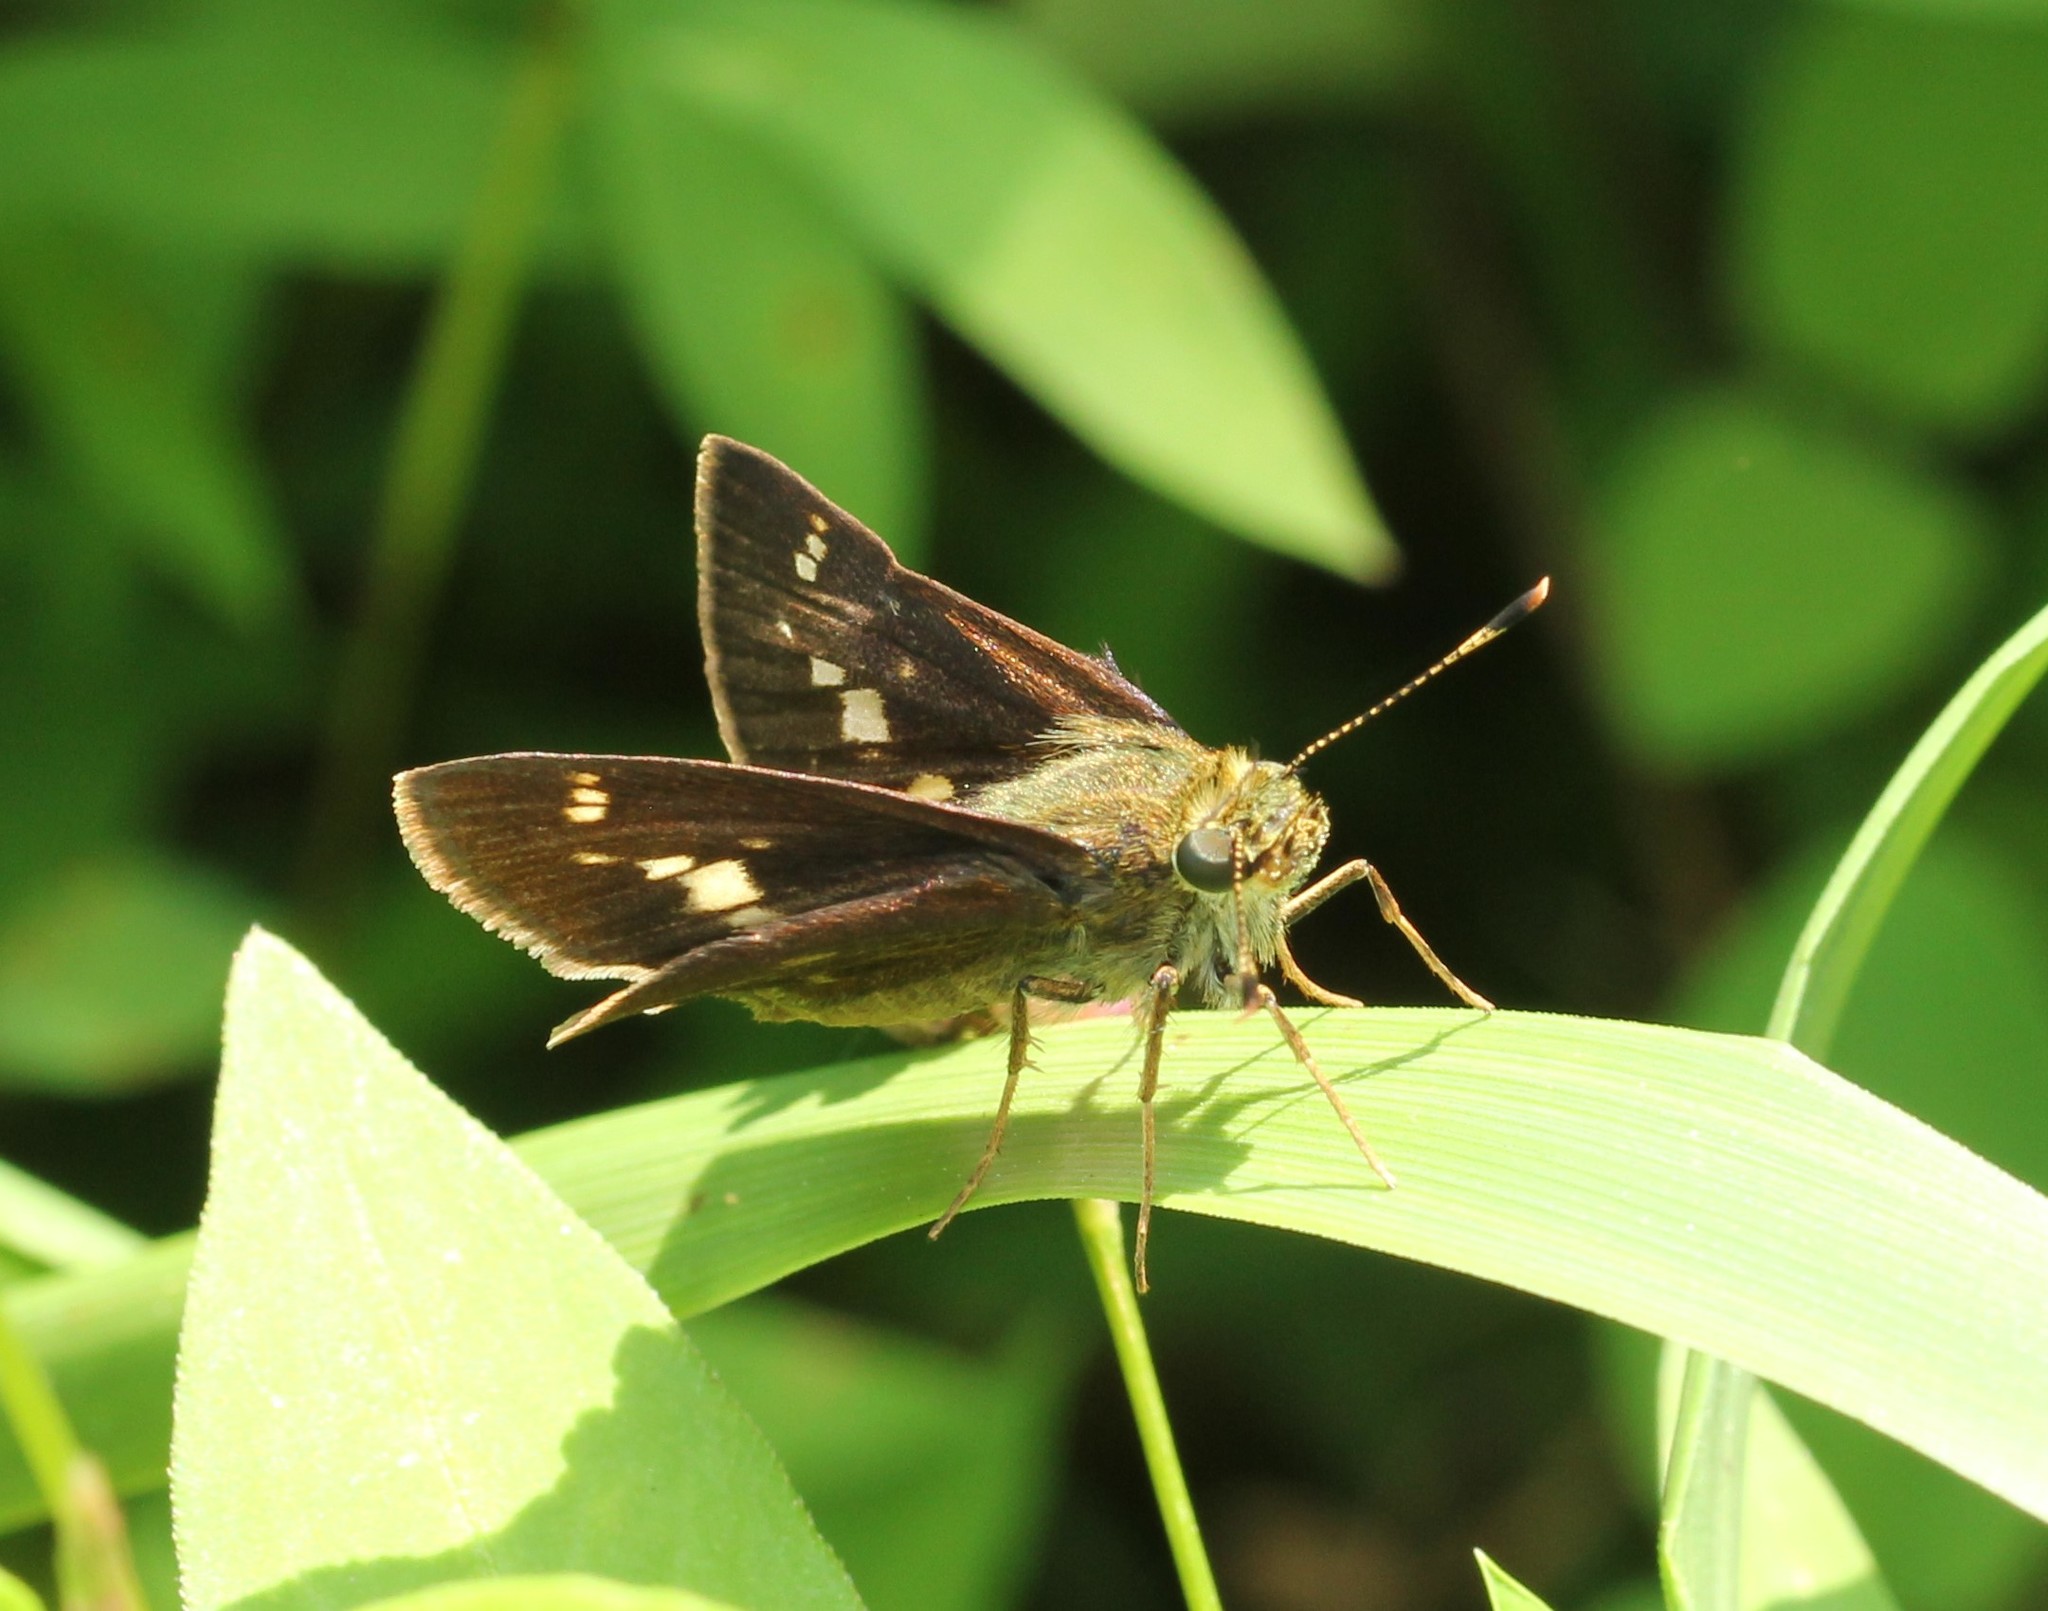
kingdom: Animalia
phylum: Arthropoda
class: Insecta
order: Lepidoptera
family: Hesperiidae
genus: Vernia
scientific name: Vernia verna
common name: Little glassywing
